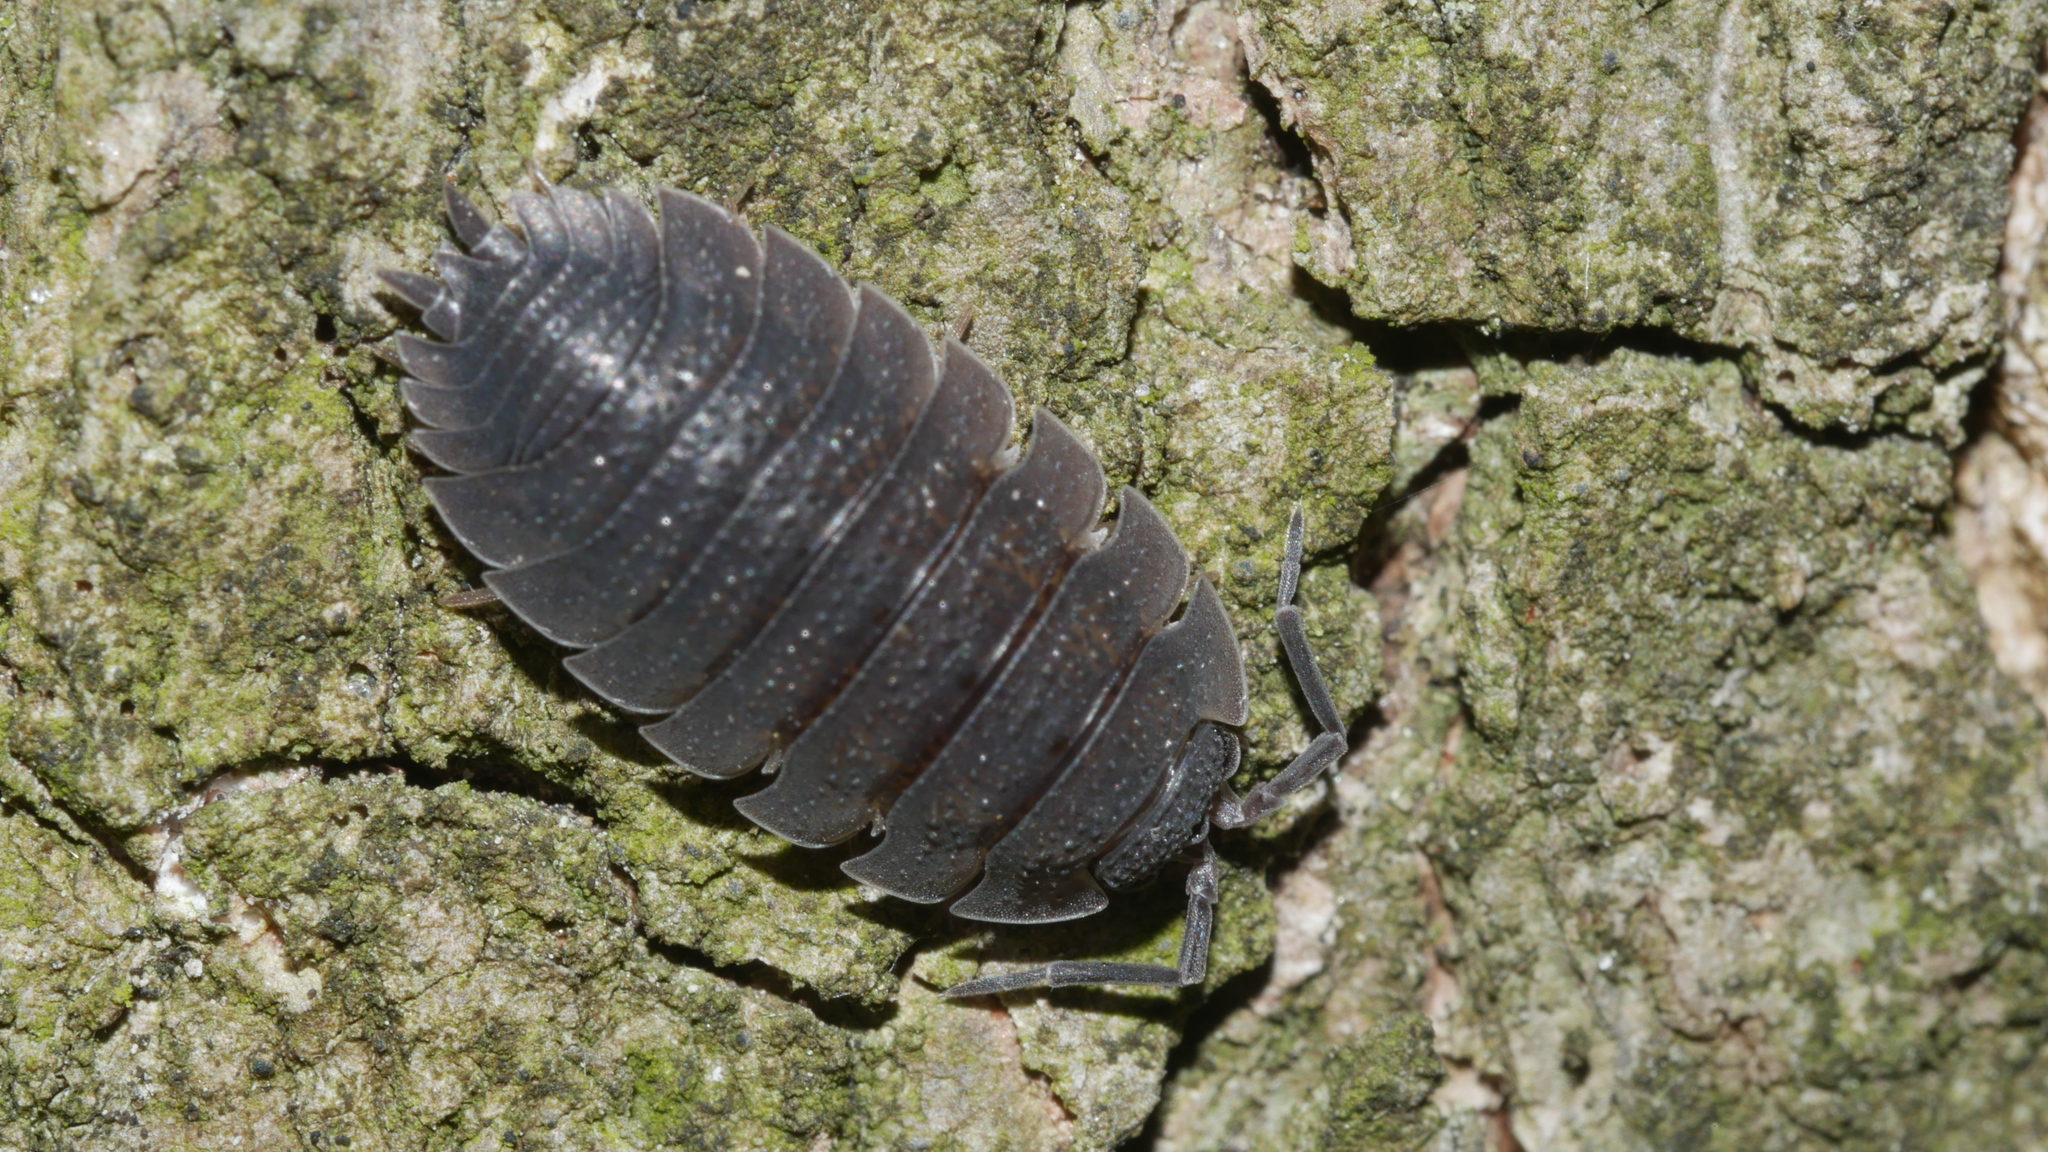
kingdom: Animalia
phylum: Arthropoda
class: Malacostraca
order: Isopoda
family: Porcellionidae
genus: Porcellio
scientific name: Porcellio scaber
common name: Common rough woodlouse
